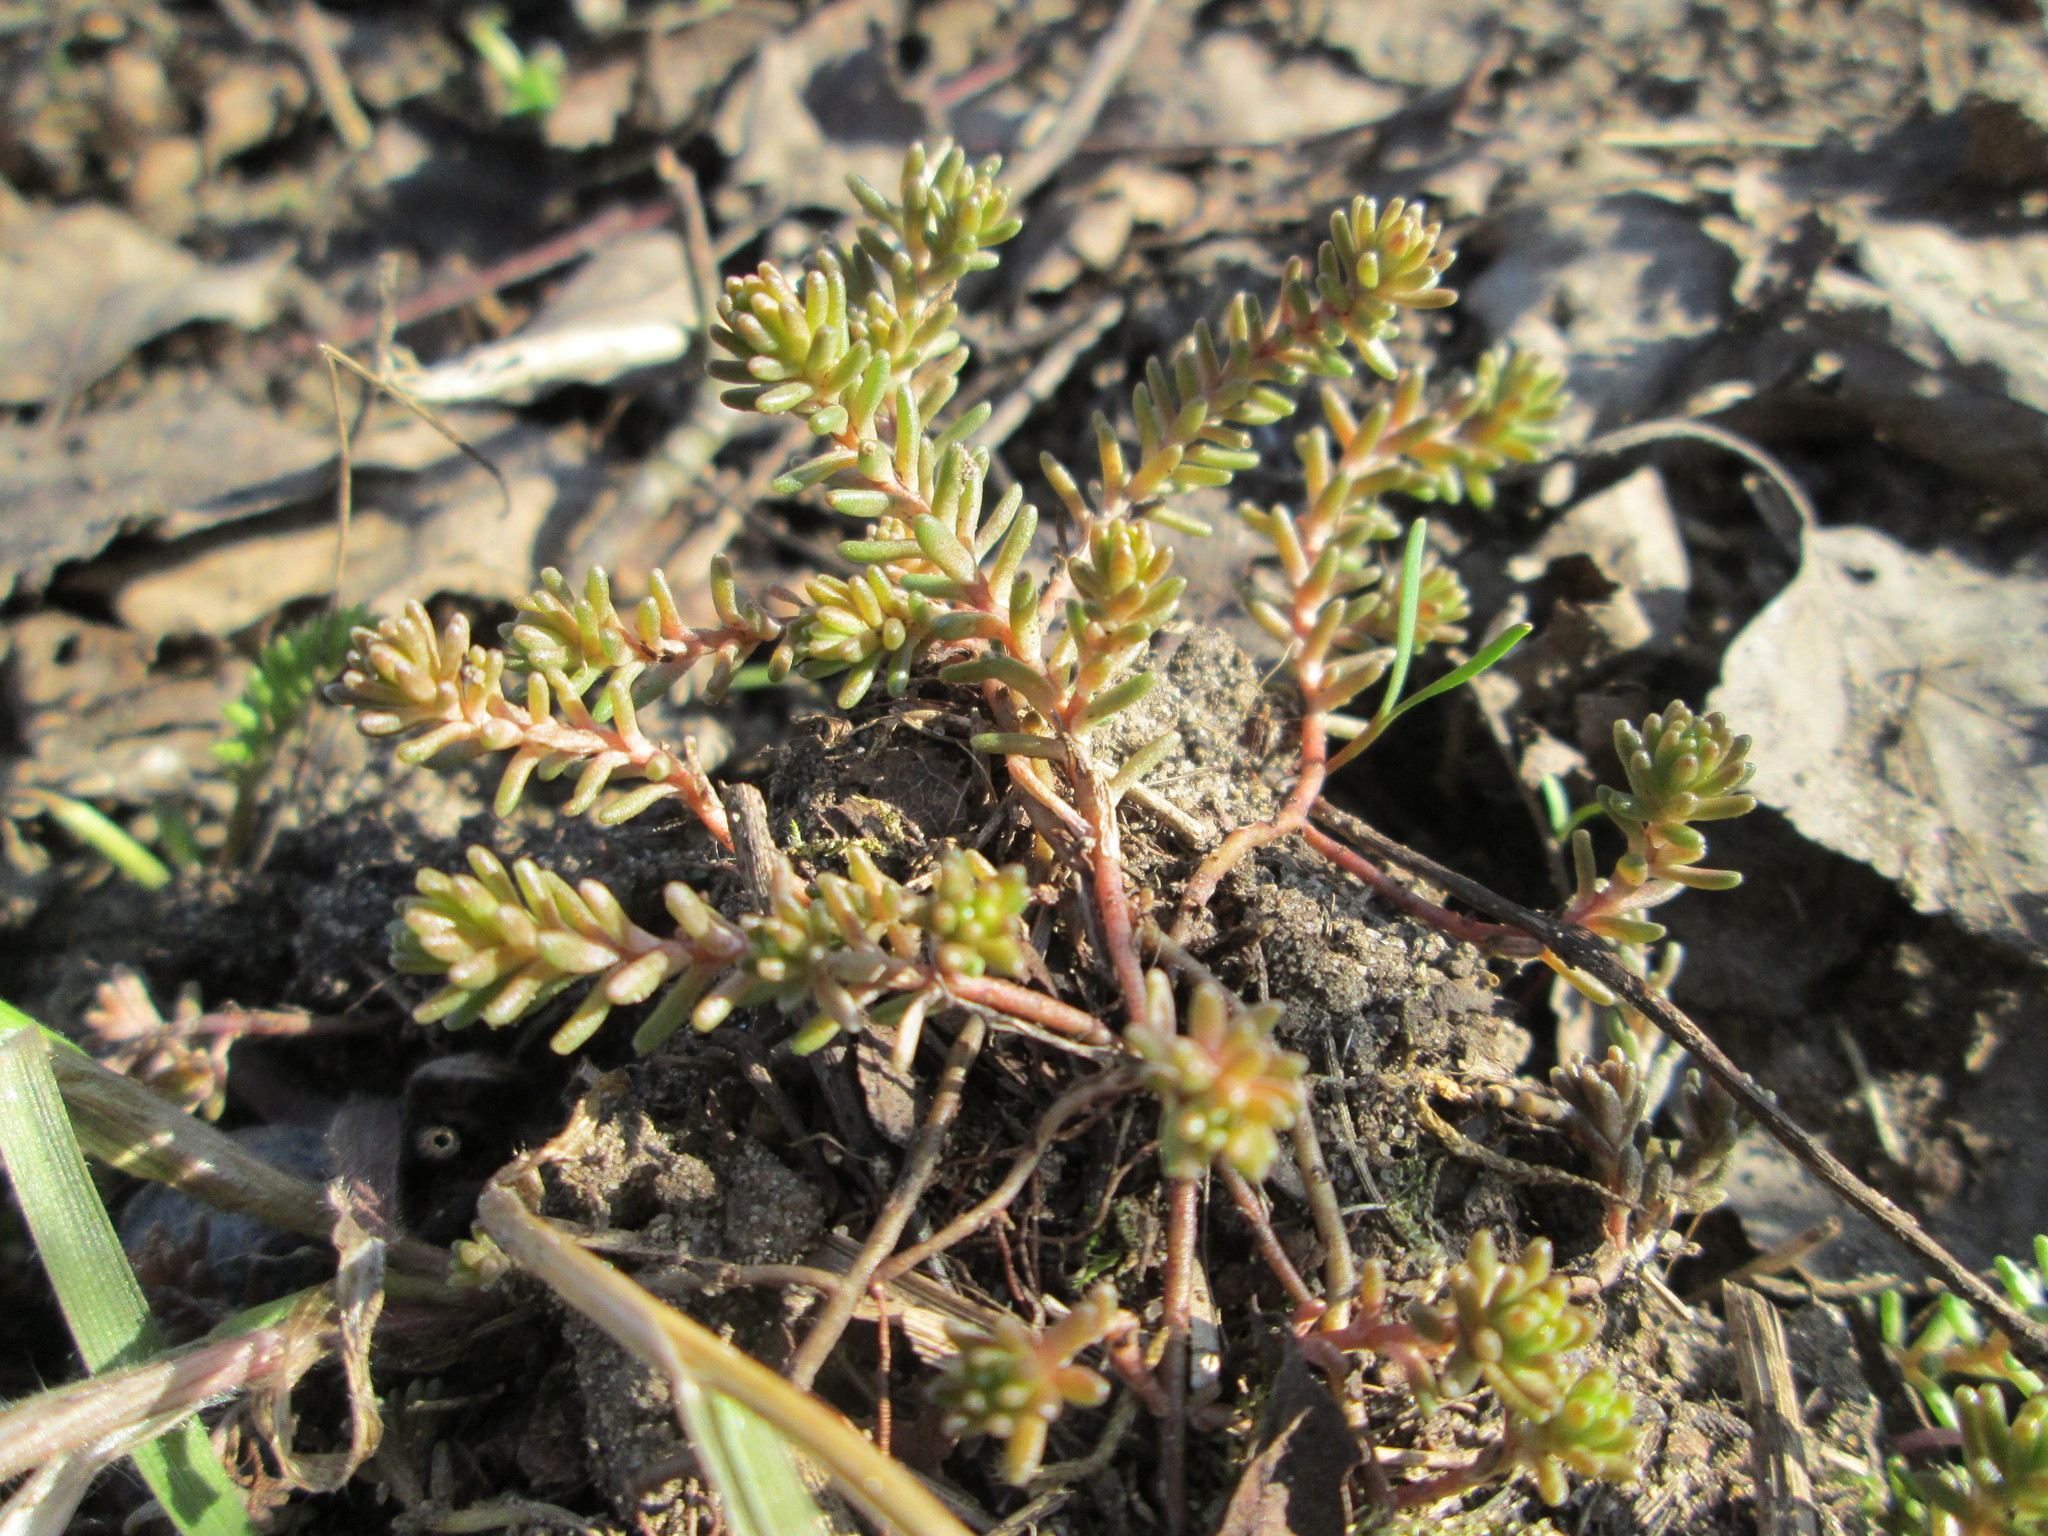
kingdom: Plantae
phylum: Tracheophyta
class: Magnoliopsida
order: Saxifragales
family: Crassulaceae
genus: Sedum
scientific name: Sedum sexangulare
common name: Tasteless stonecrop
